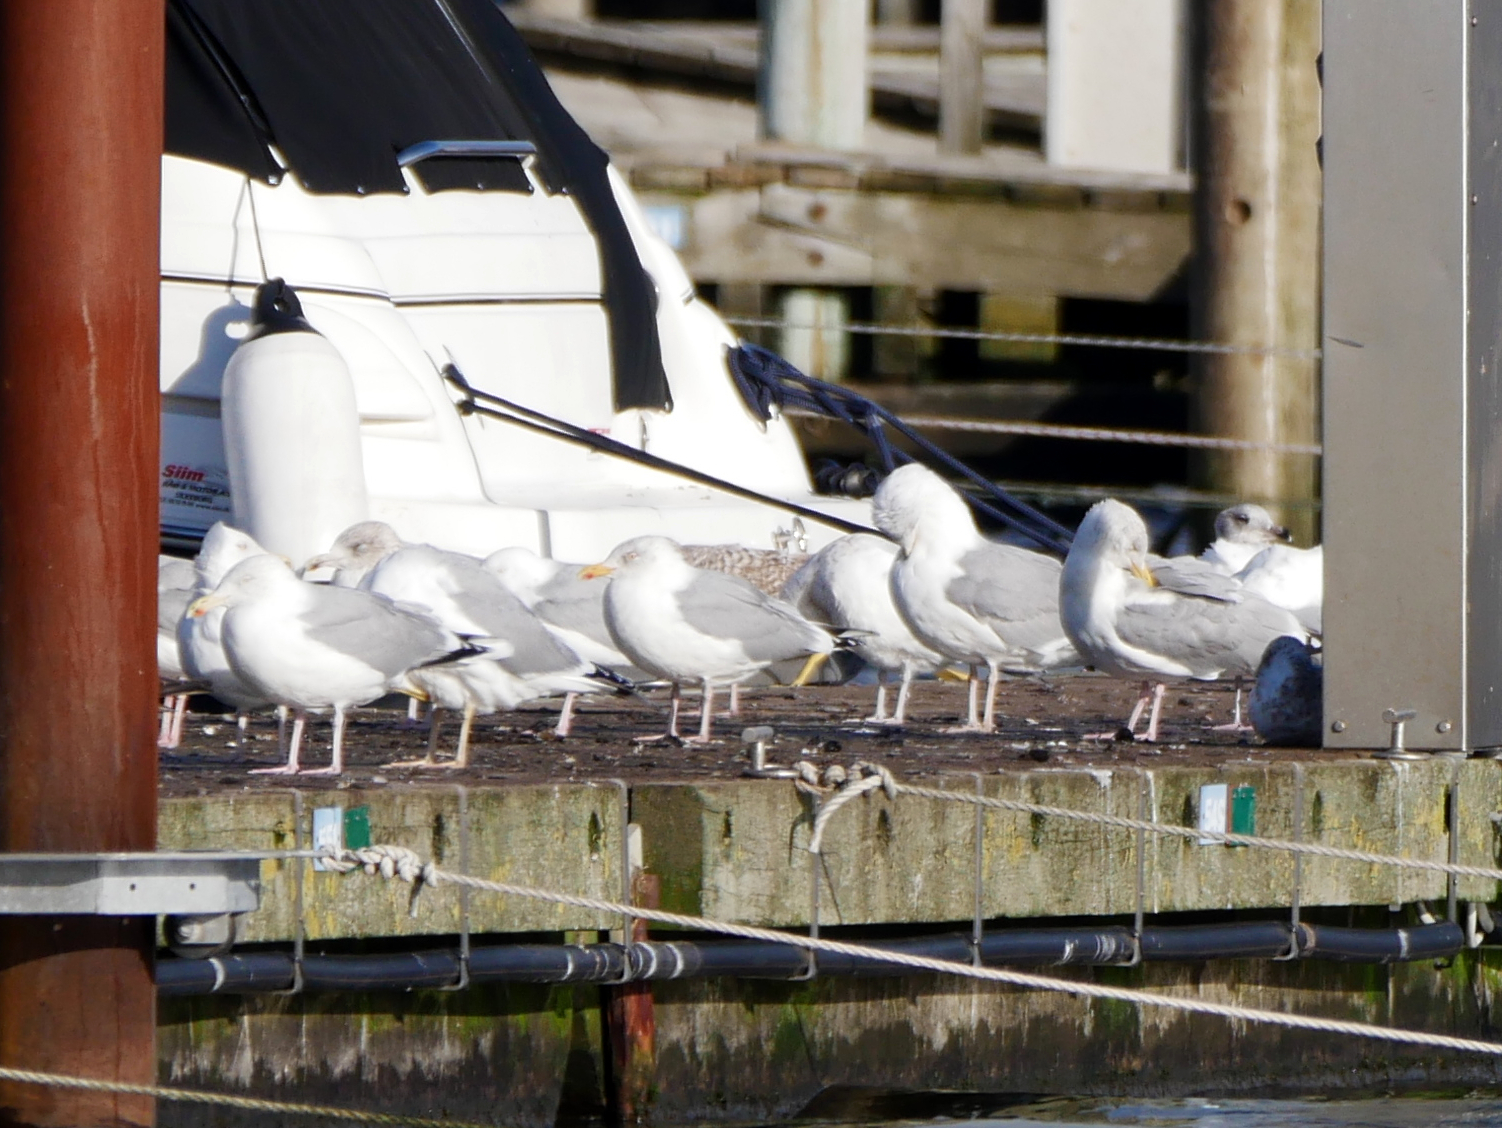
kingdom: Animalia
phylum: Chordata
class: Aves
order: Charadriiformes
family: Laridae
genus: Larus
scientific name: Larus argentatus
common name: Herring gull
